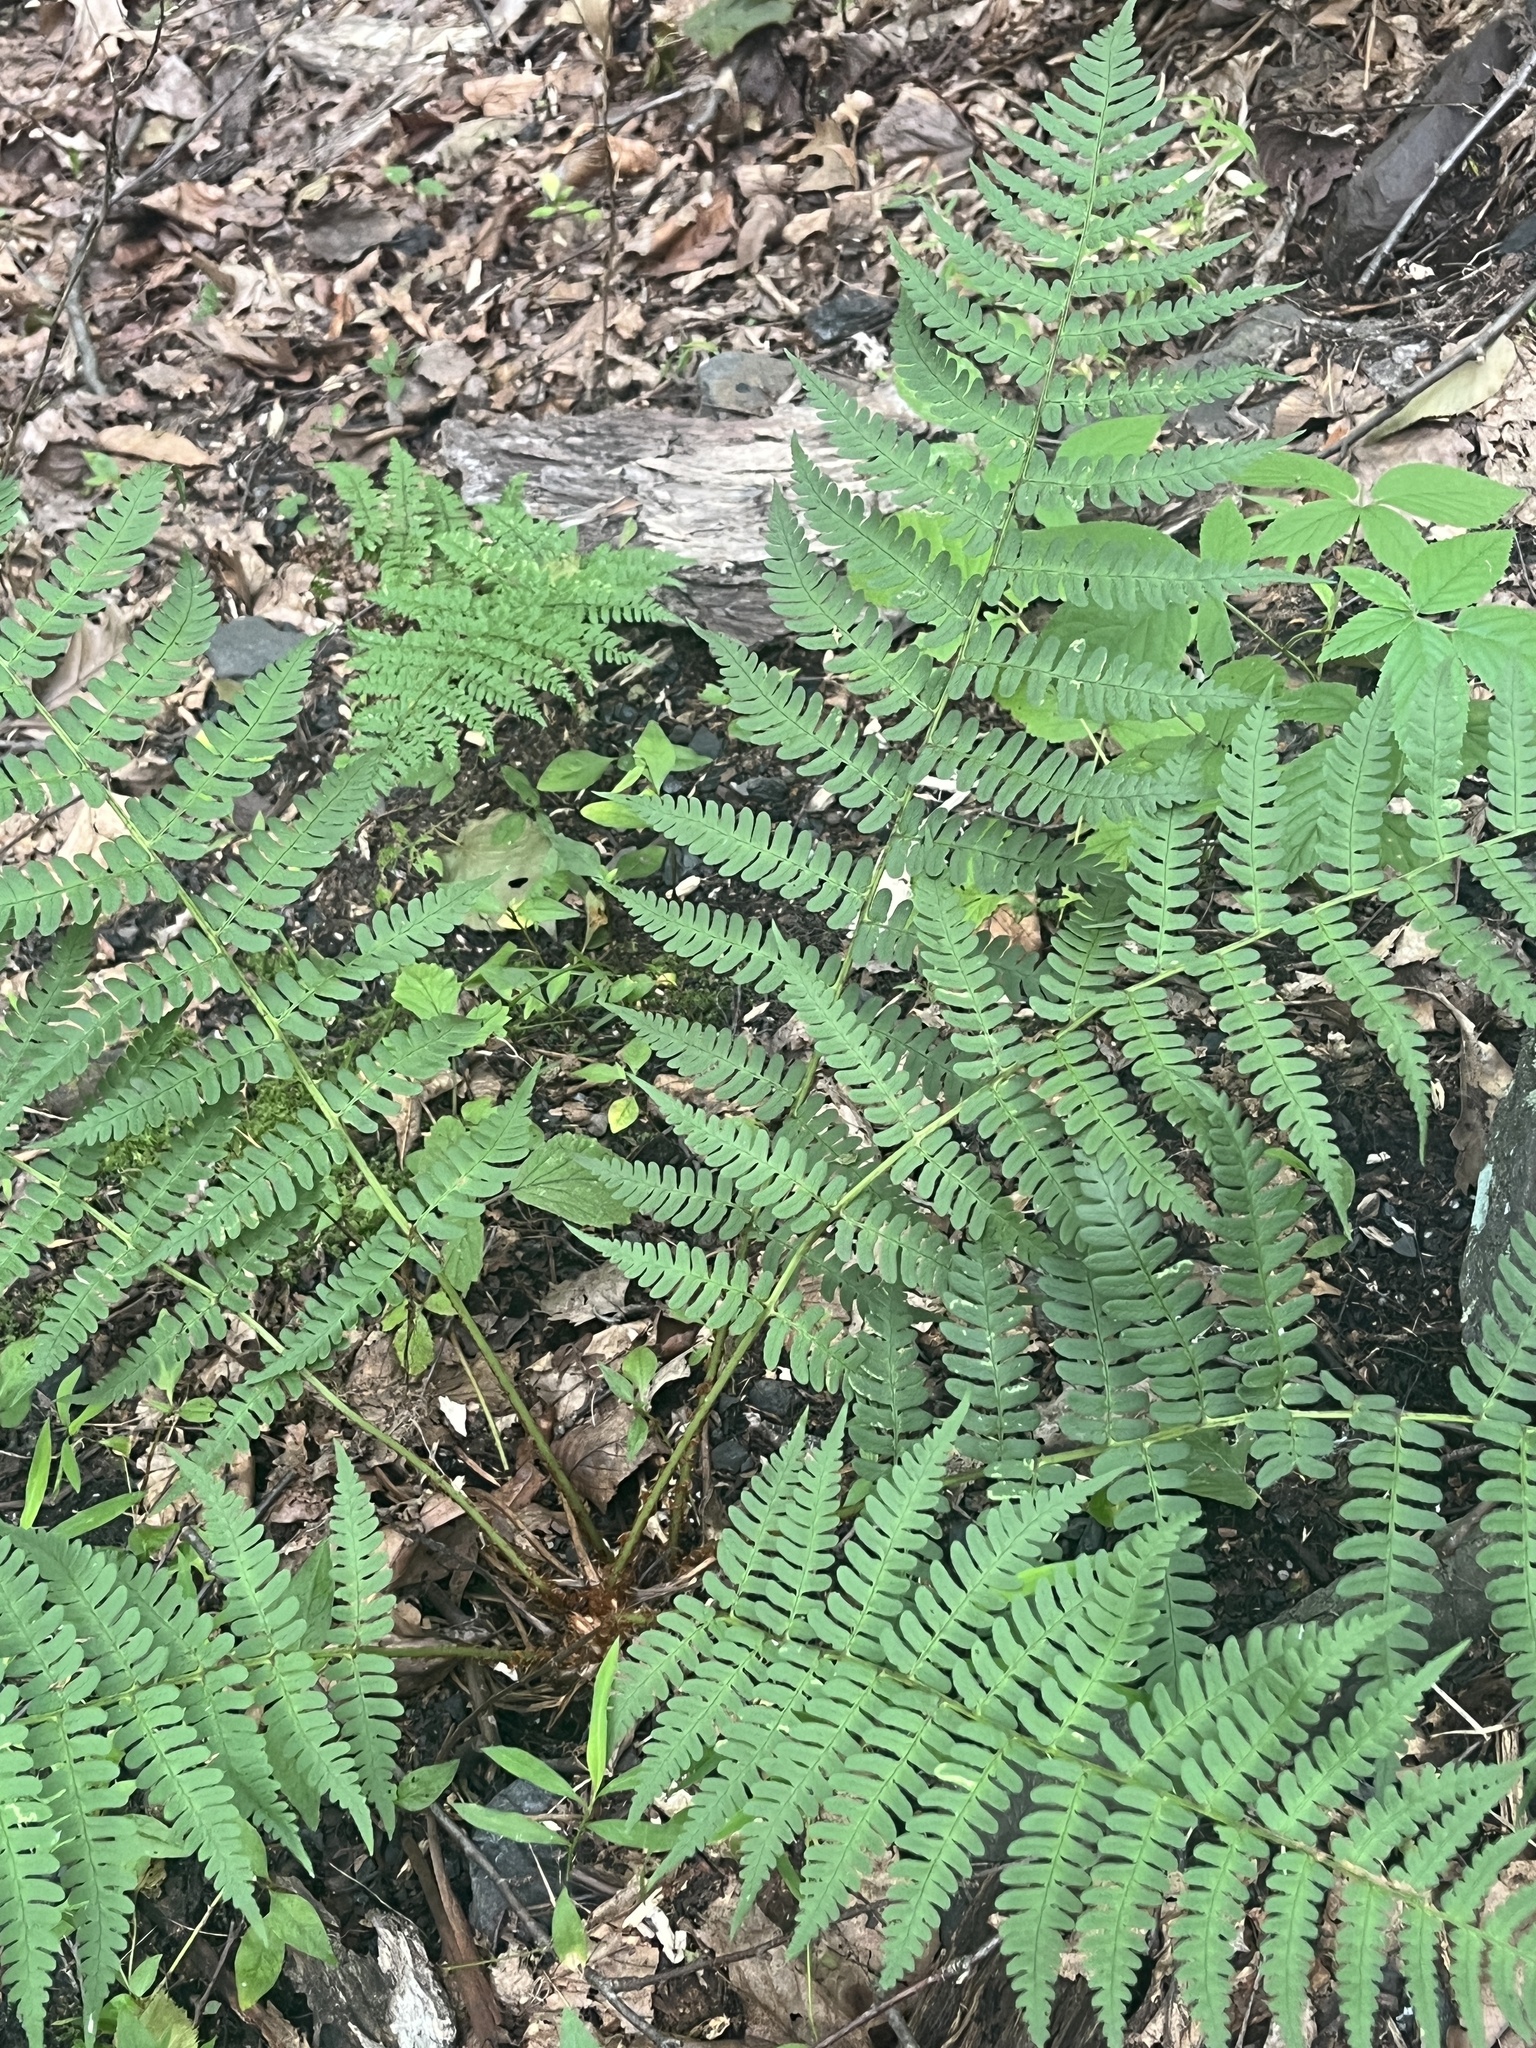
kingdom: Plantae
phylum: Tracheophyta
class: Polypodiopsida
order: Polypodiales
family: Dryopteridaceae
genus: Dryopteris
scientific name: Dryopteris marginalis
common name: Marginal wood fern
